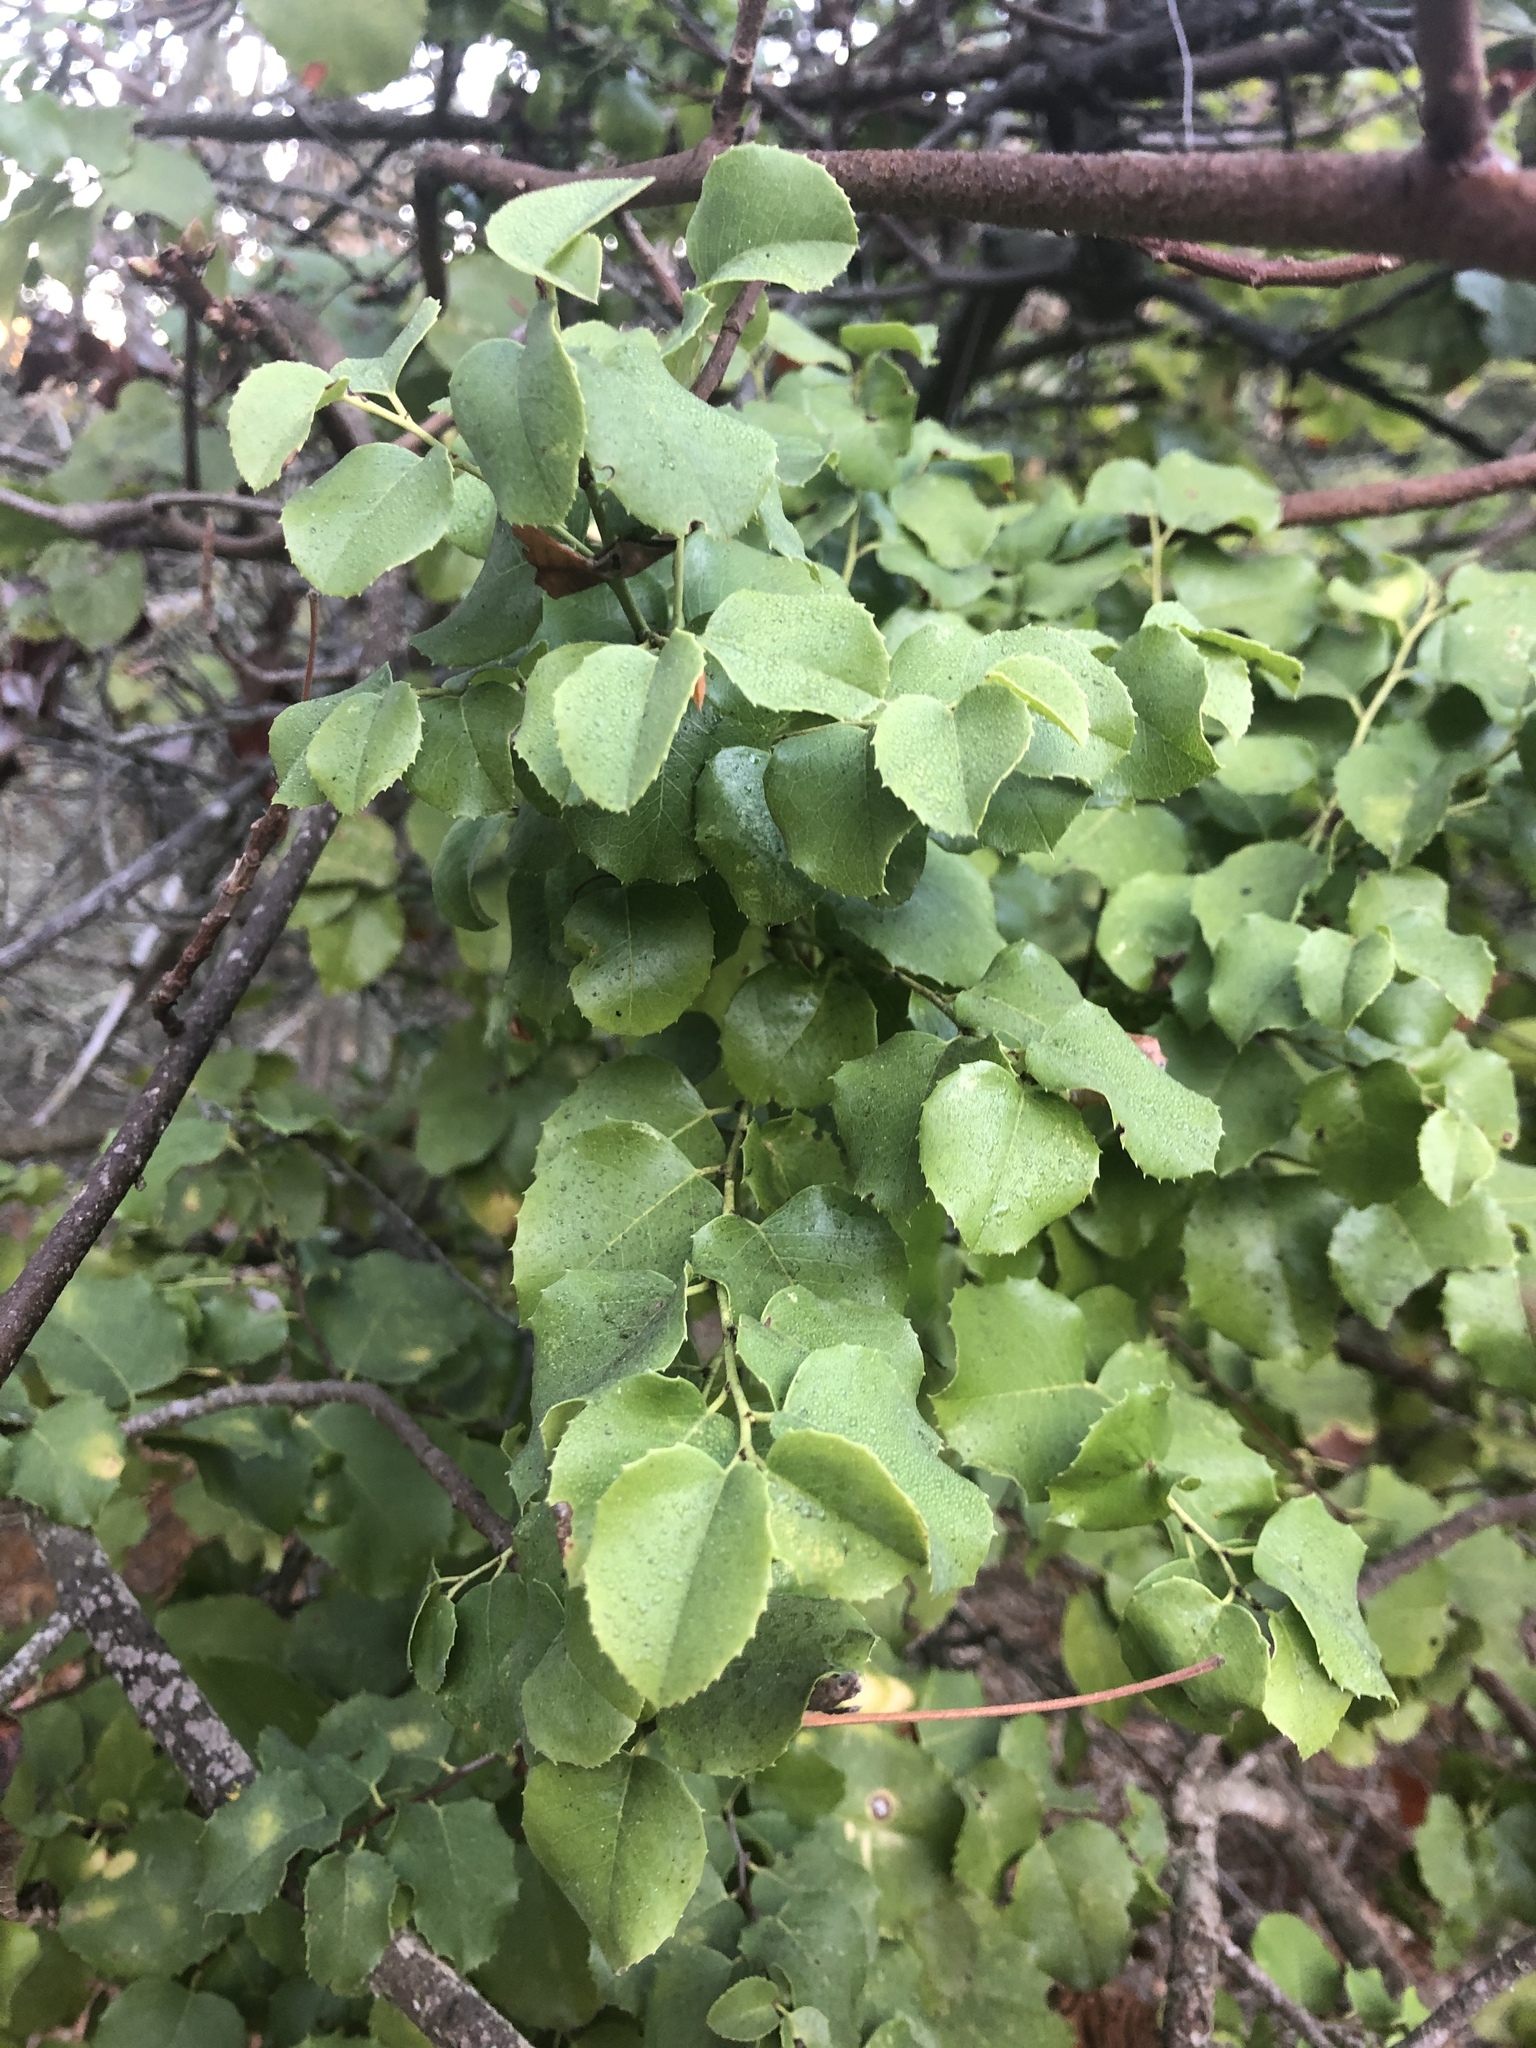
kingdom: Plantae
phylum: Tracheophyta
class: Magnoliopsida
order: Rosales
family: Rosaceae
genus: Prunus
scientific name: Prunus ilicifolia
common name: Hollyleaf cherry
